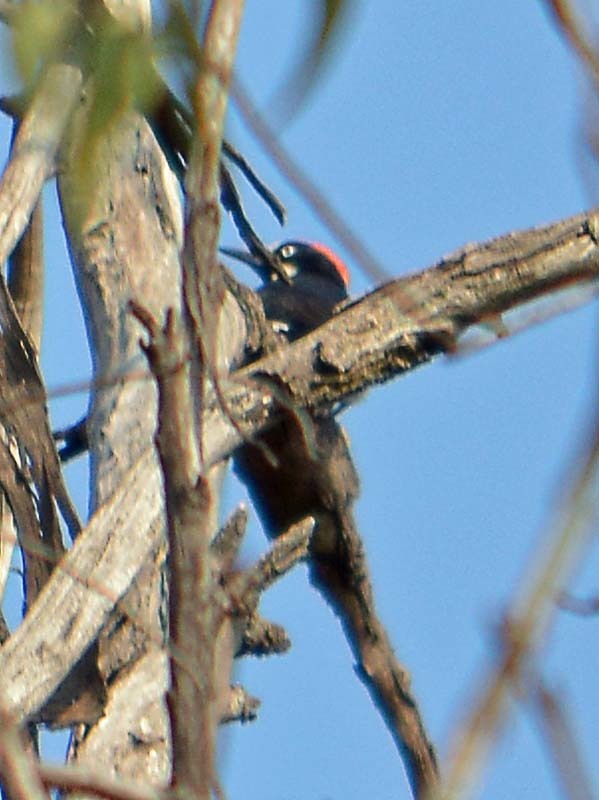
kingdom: Animalia
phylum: Chordata
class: Aves
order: Piciformes
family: Picidae
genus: Melanerpes
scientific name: Melanerpes formicivorus
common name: Acorn woodpecker
